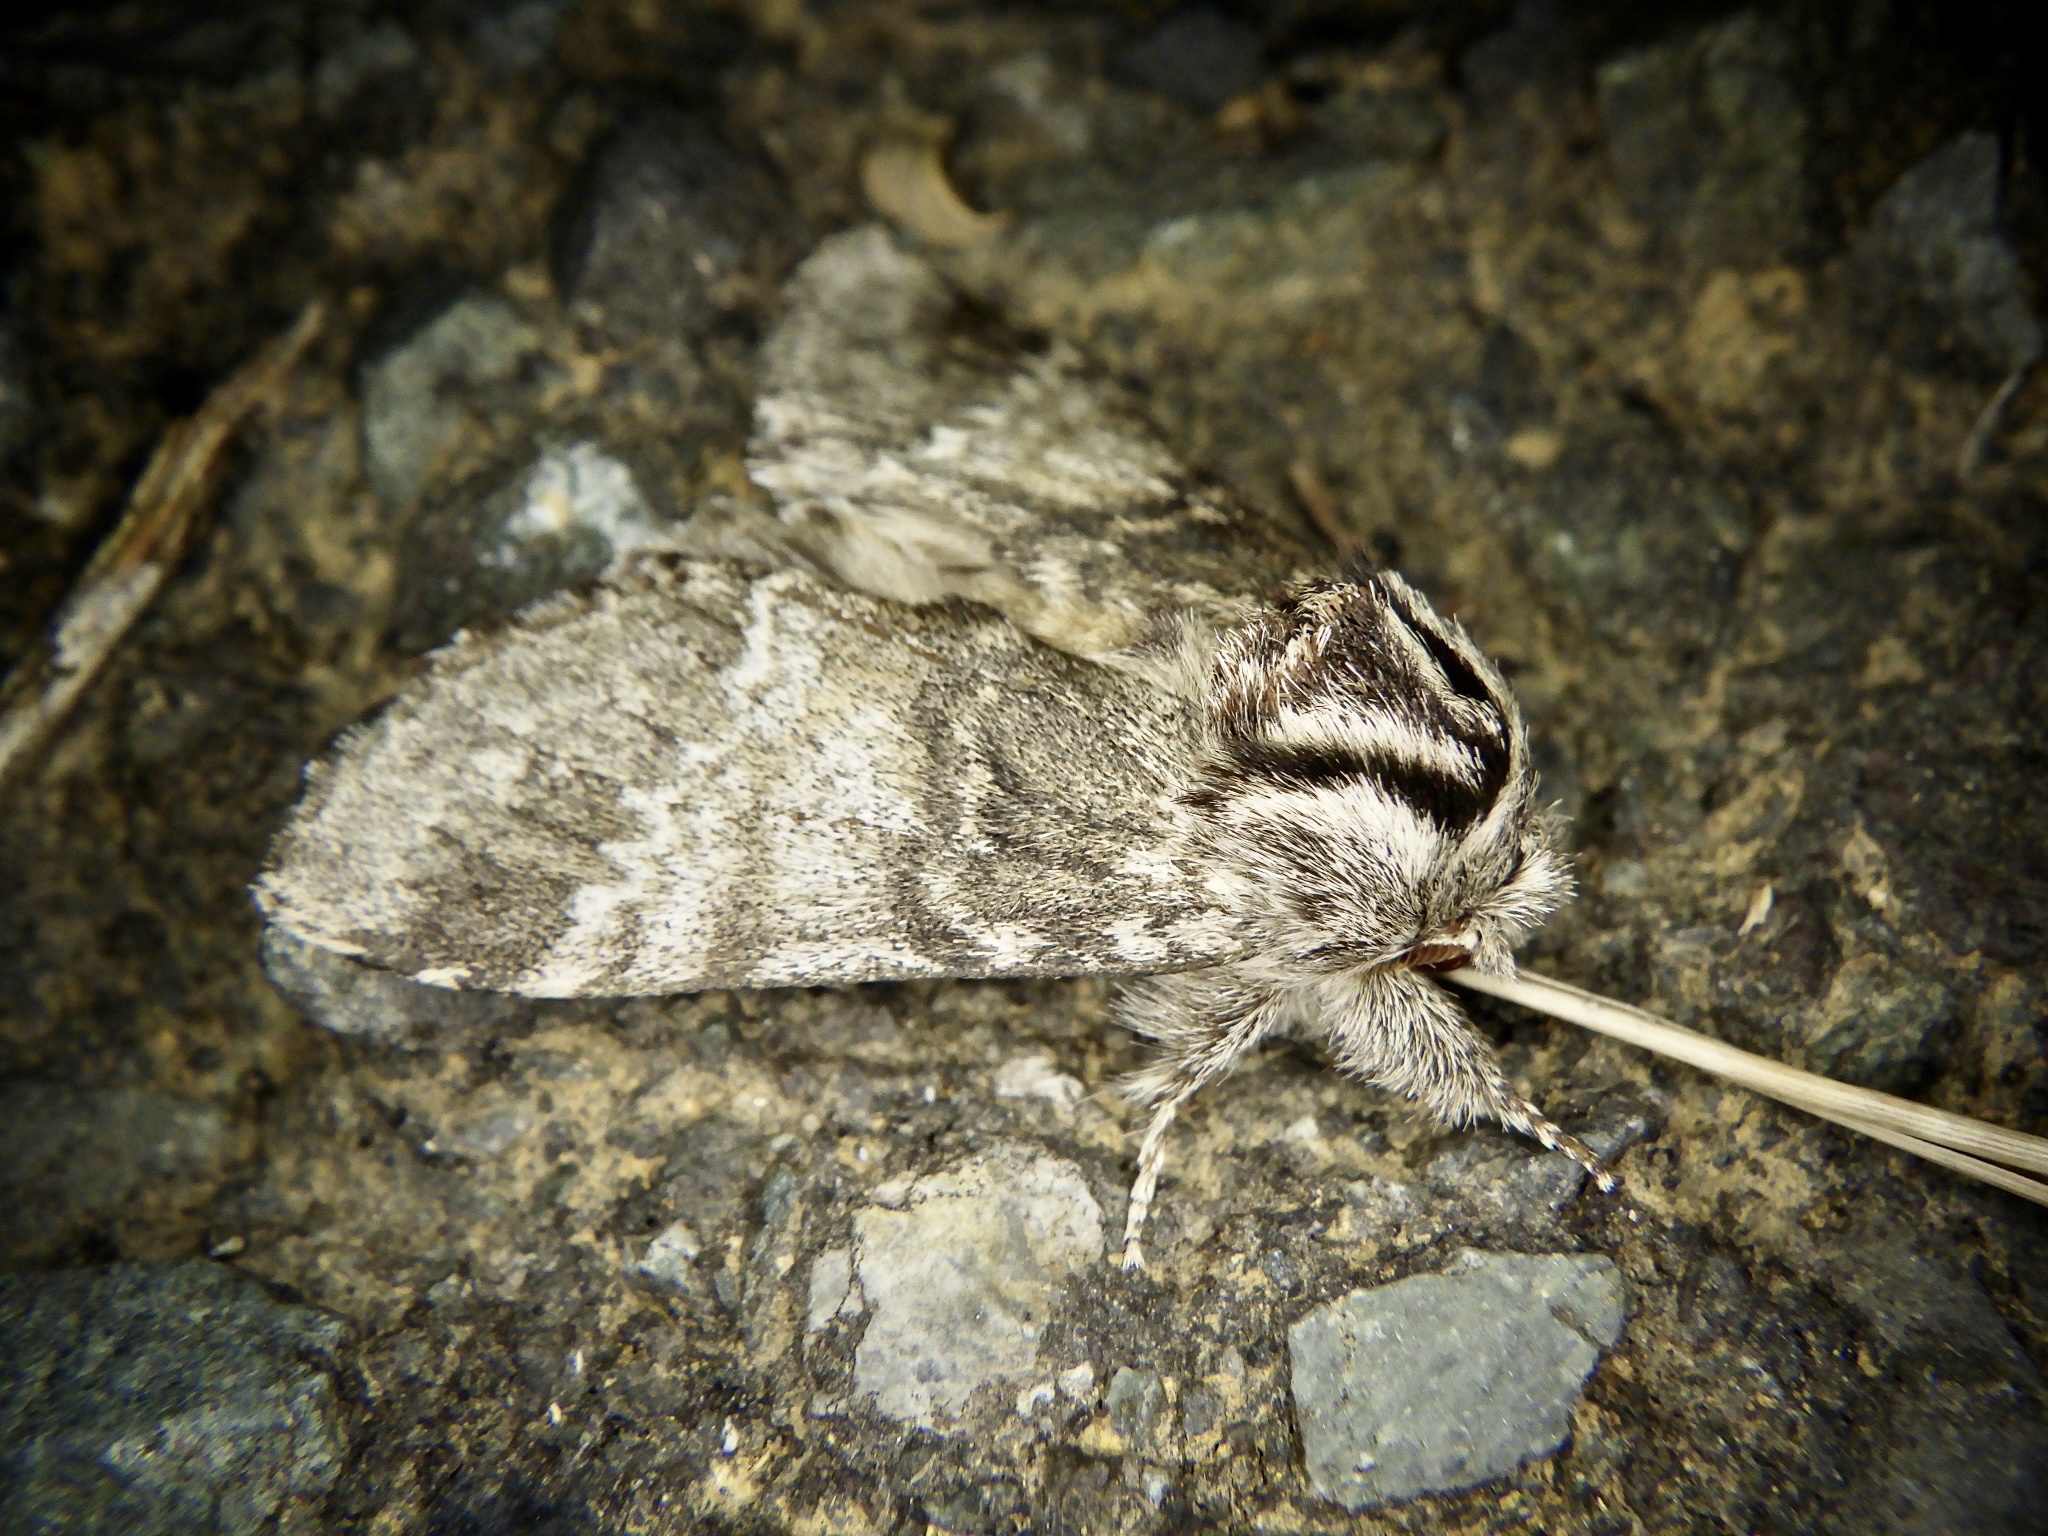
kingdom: Animalia
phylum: Arthropoda
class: Insecta
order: Lepidoptera
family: Notodontidae
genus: Drymonia
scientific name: Drymonia basalis
